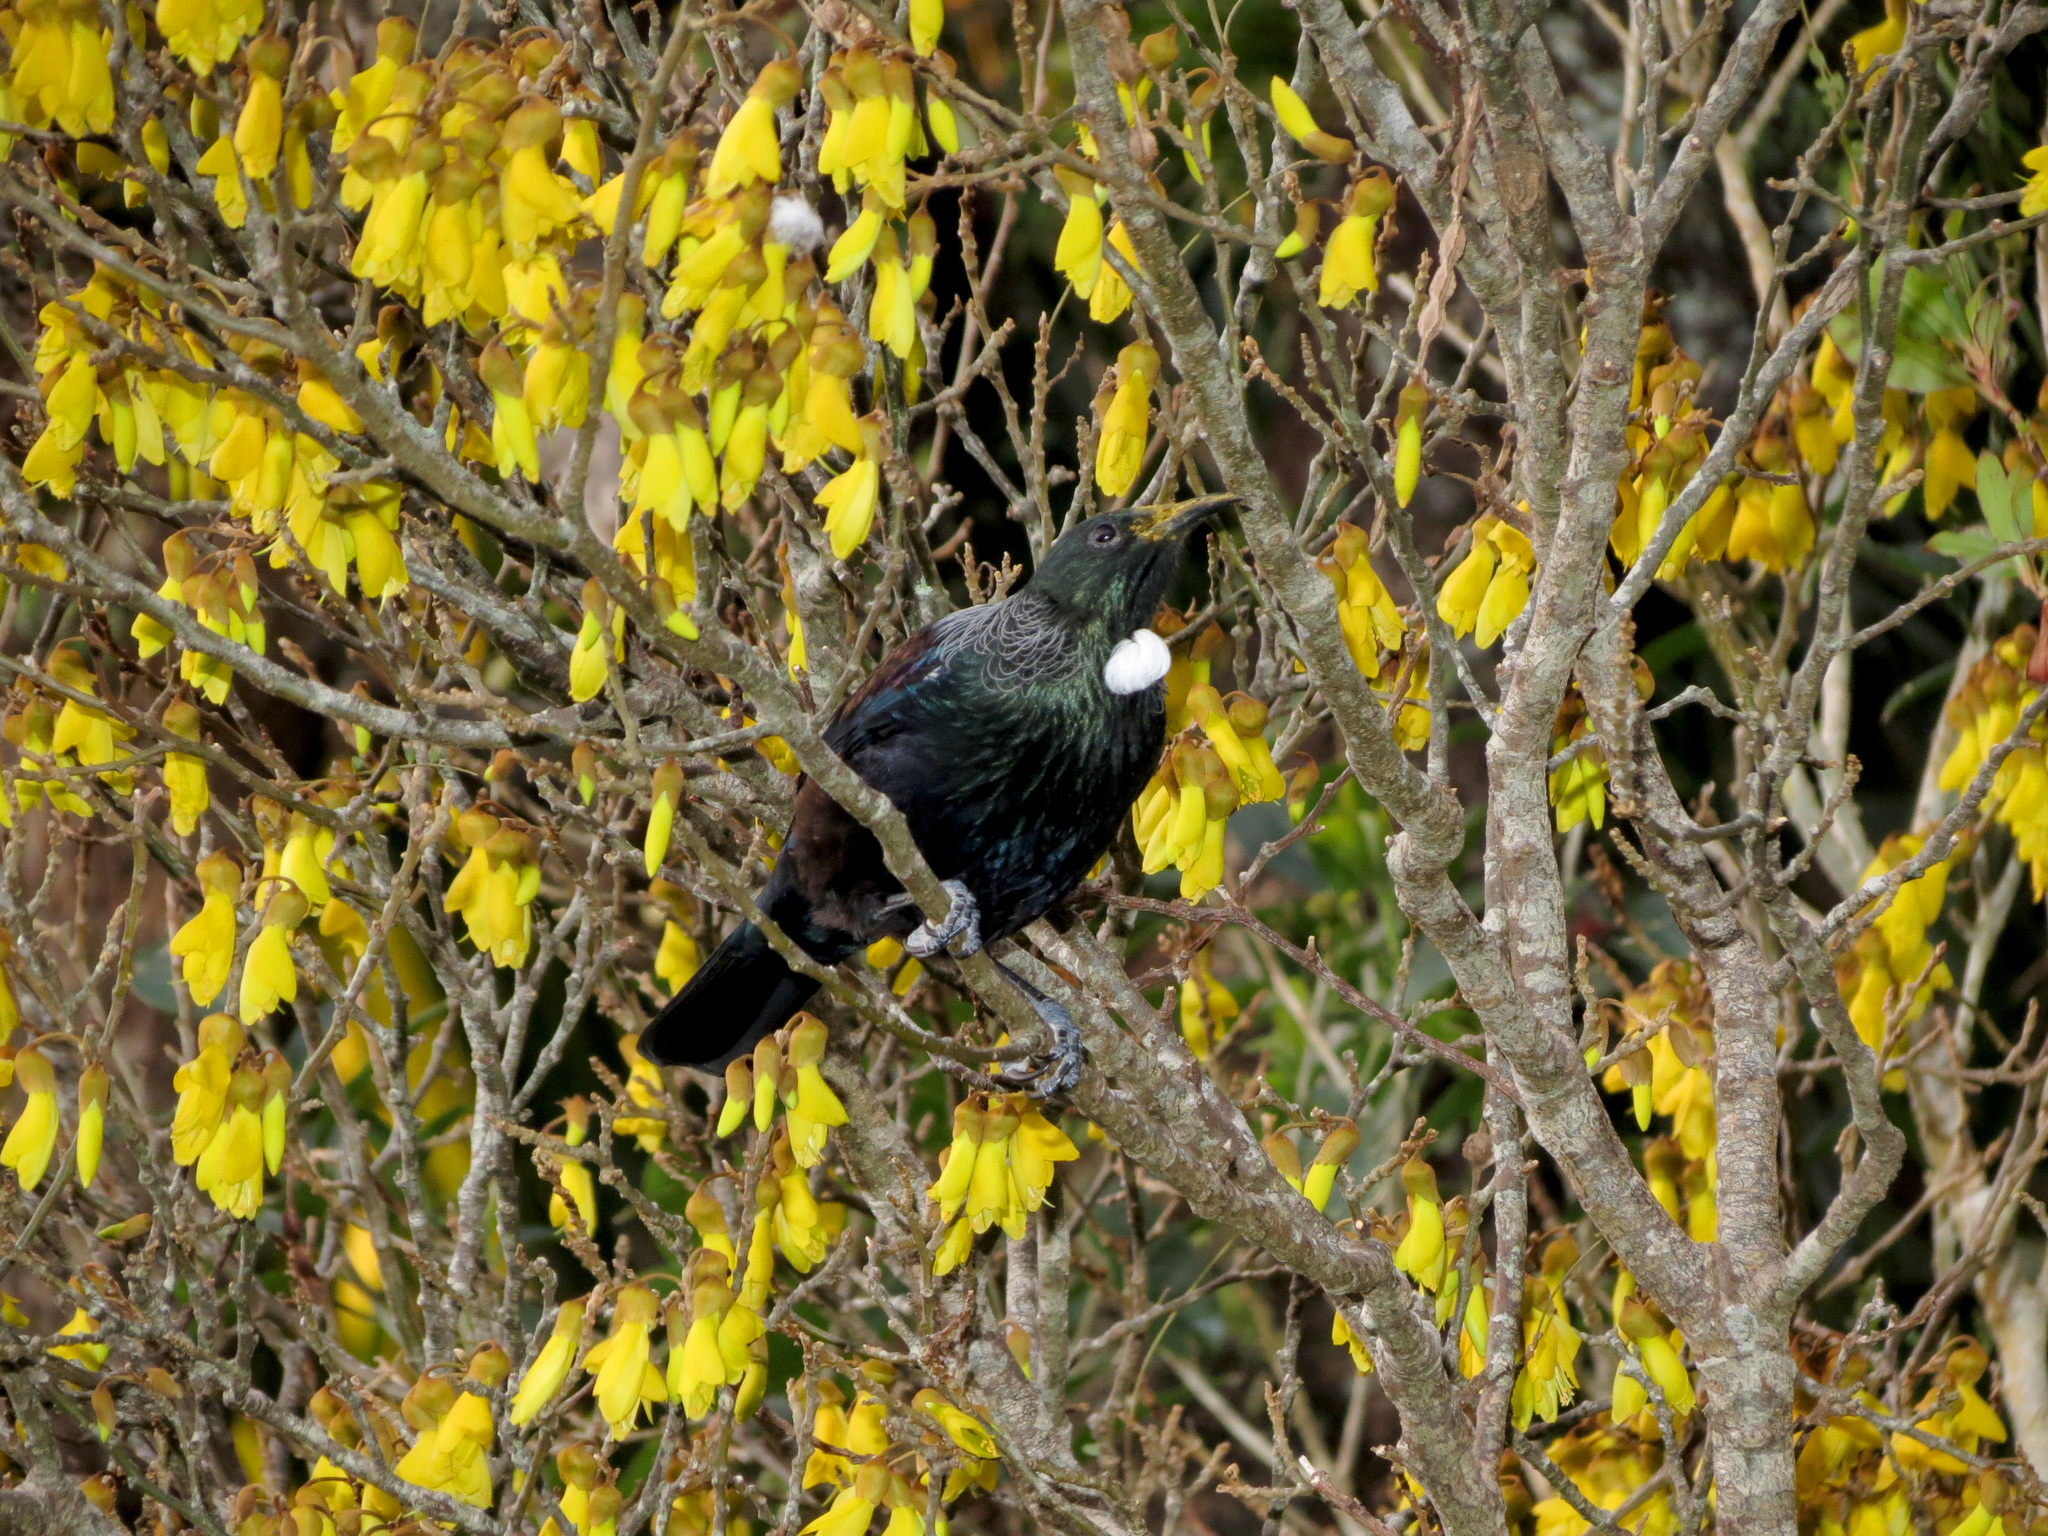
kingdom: Animalia
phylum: Chordata
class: Aves
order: Passeriformes
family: Meliphagidae
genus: Prosthemadera
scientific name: Prosthemadera novaeseelandiae
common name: Tui
